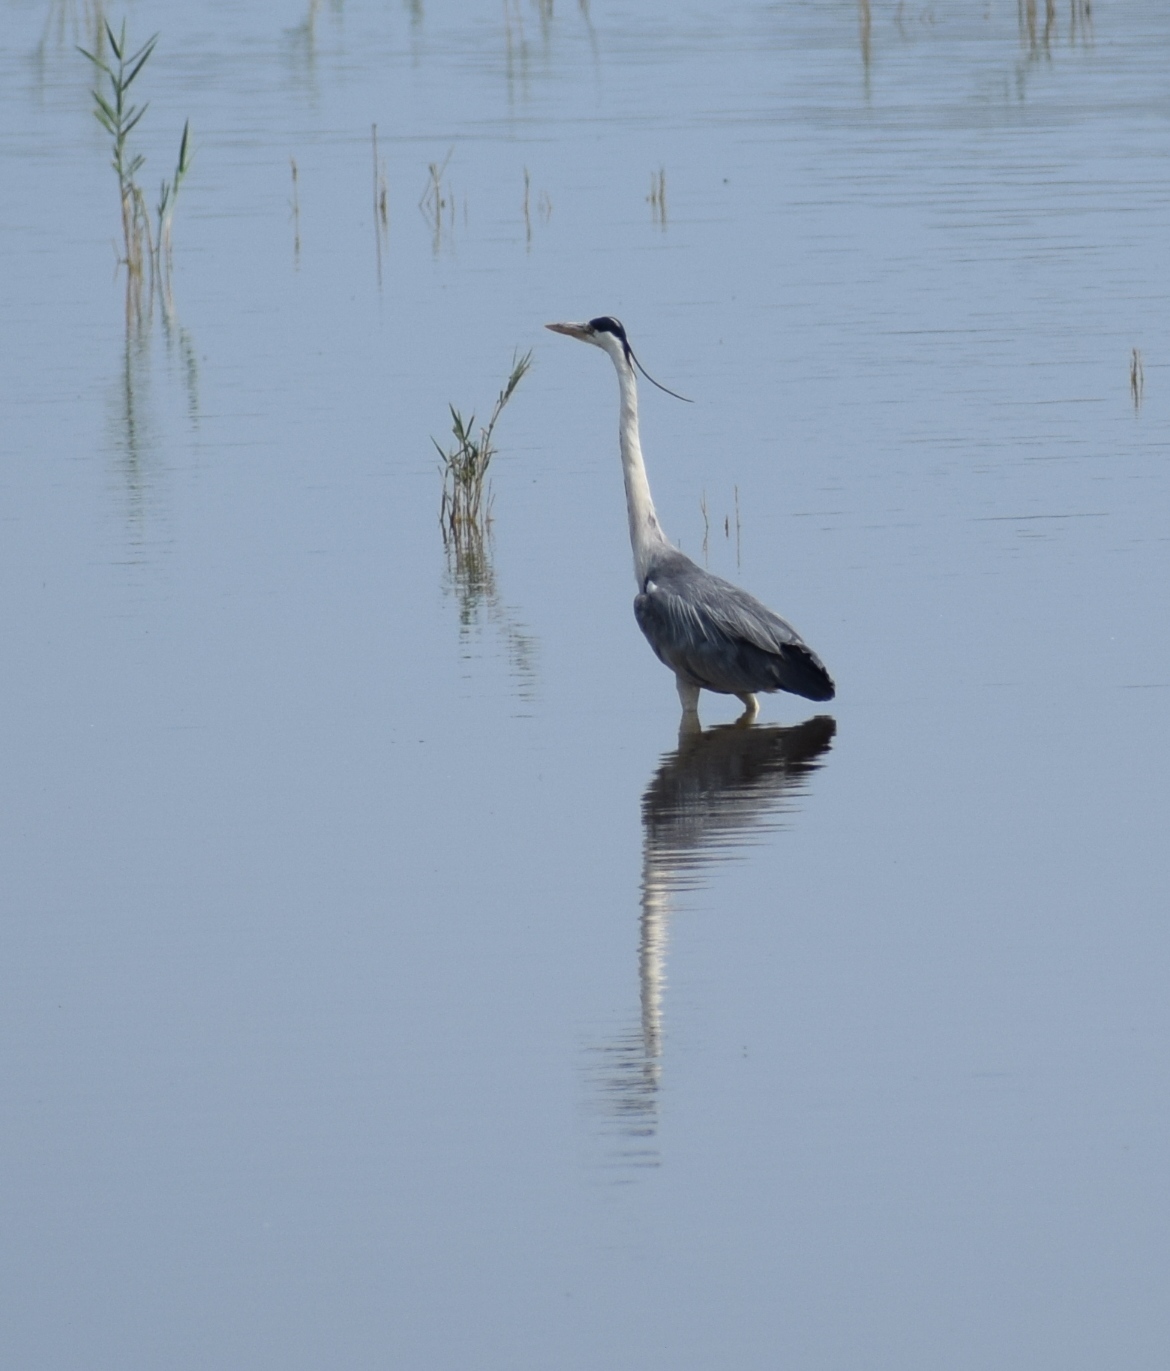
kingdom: Animalia
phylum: Chordata
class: Aves
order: Pelecaniformes
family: Ardeidae
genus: Ardea
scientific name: Ardea cinerea
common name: Grey heron
